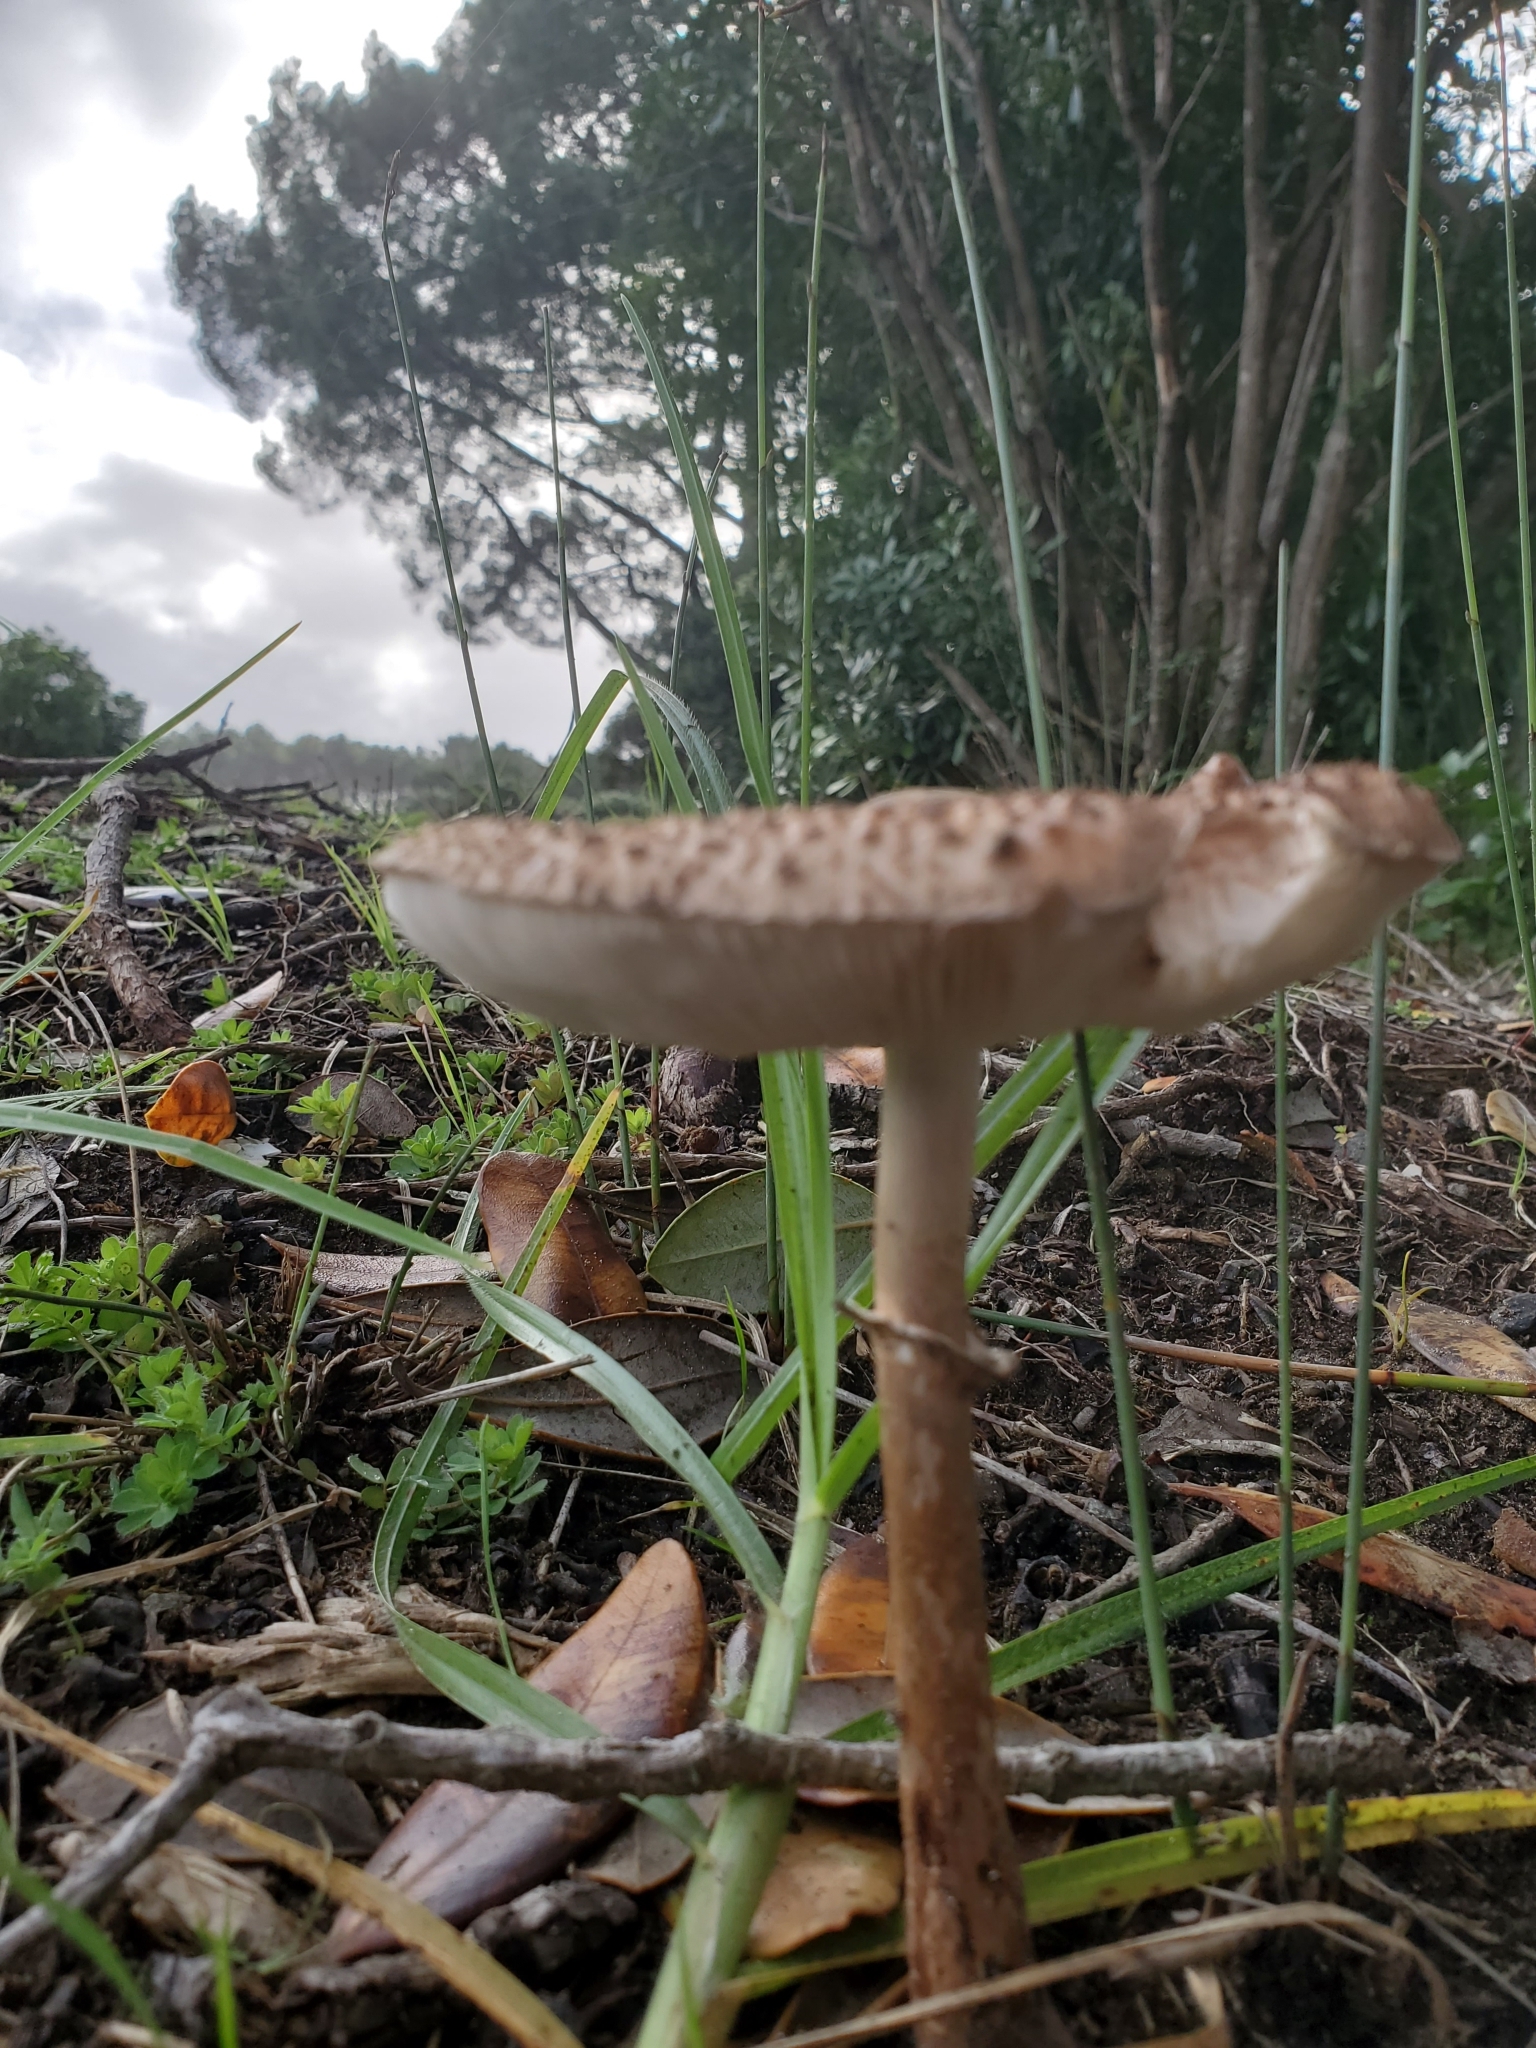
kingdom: Fungi
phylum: Basidiomycota
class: Agaricomycetes
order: Agaricales
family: Agaricaceae
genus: Macrolepiota
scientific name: Macrolepiota clelandii
